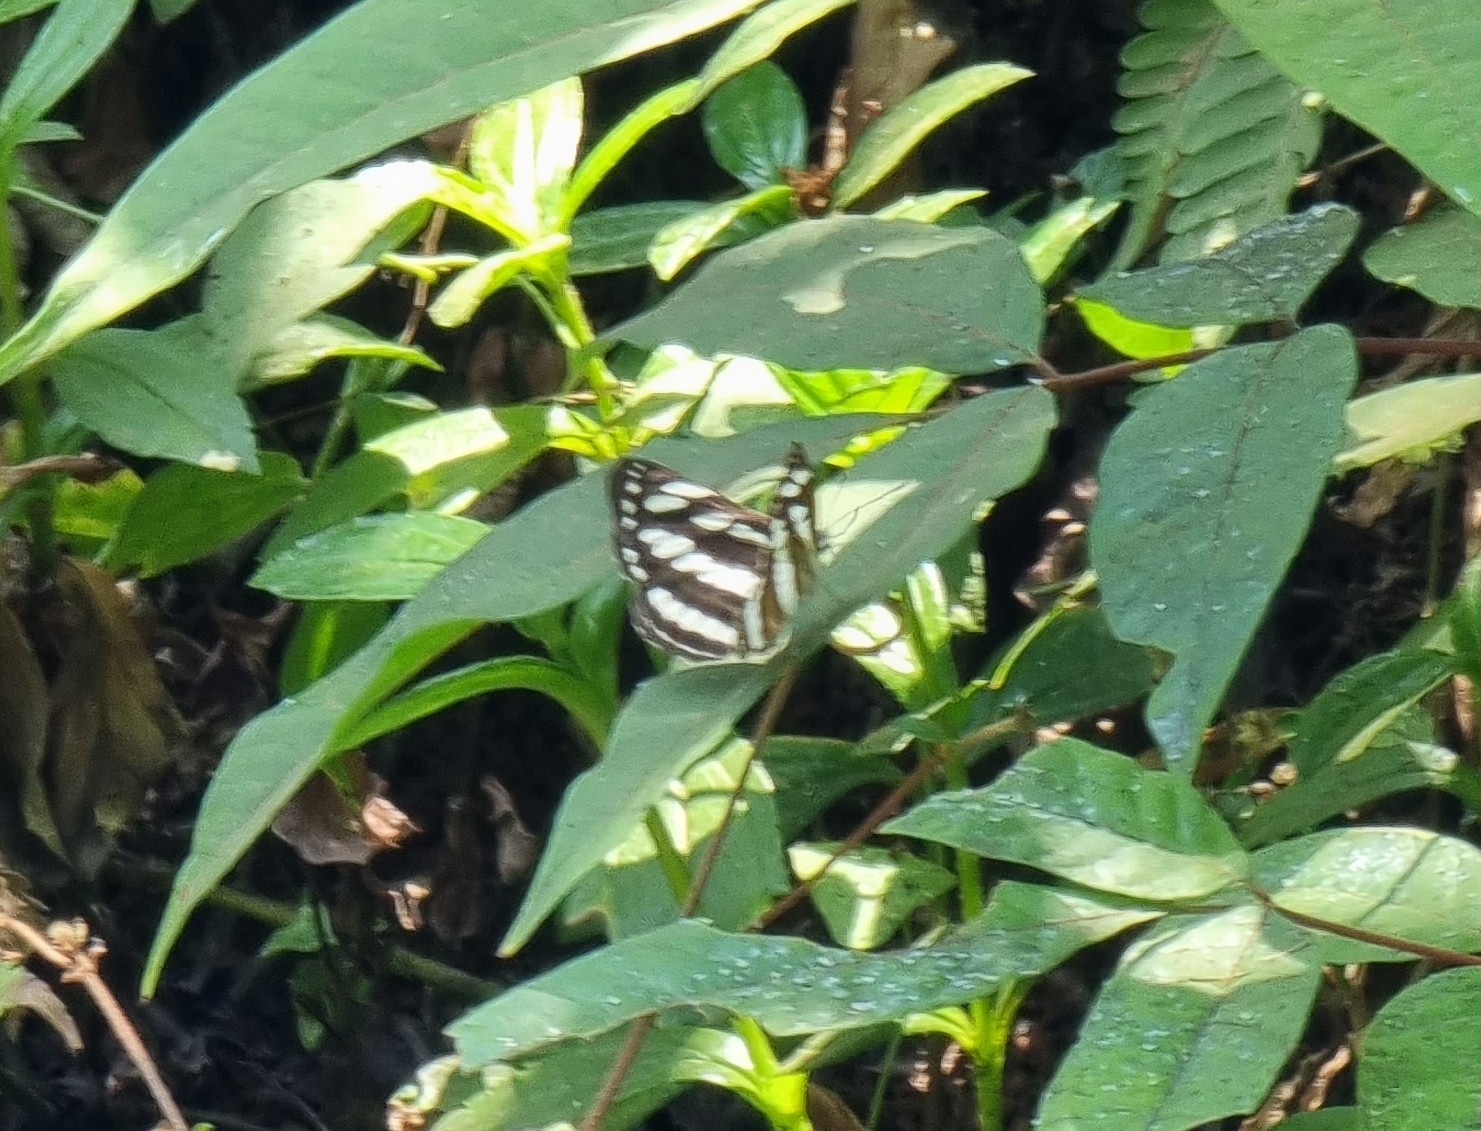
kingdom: Animalia
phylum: Arthropoda
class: Insecta
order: Lepidoptera
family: Nymphalidae
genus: Neptis
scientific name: Neptis hylas
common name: Common sailer
